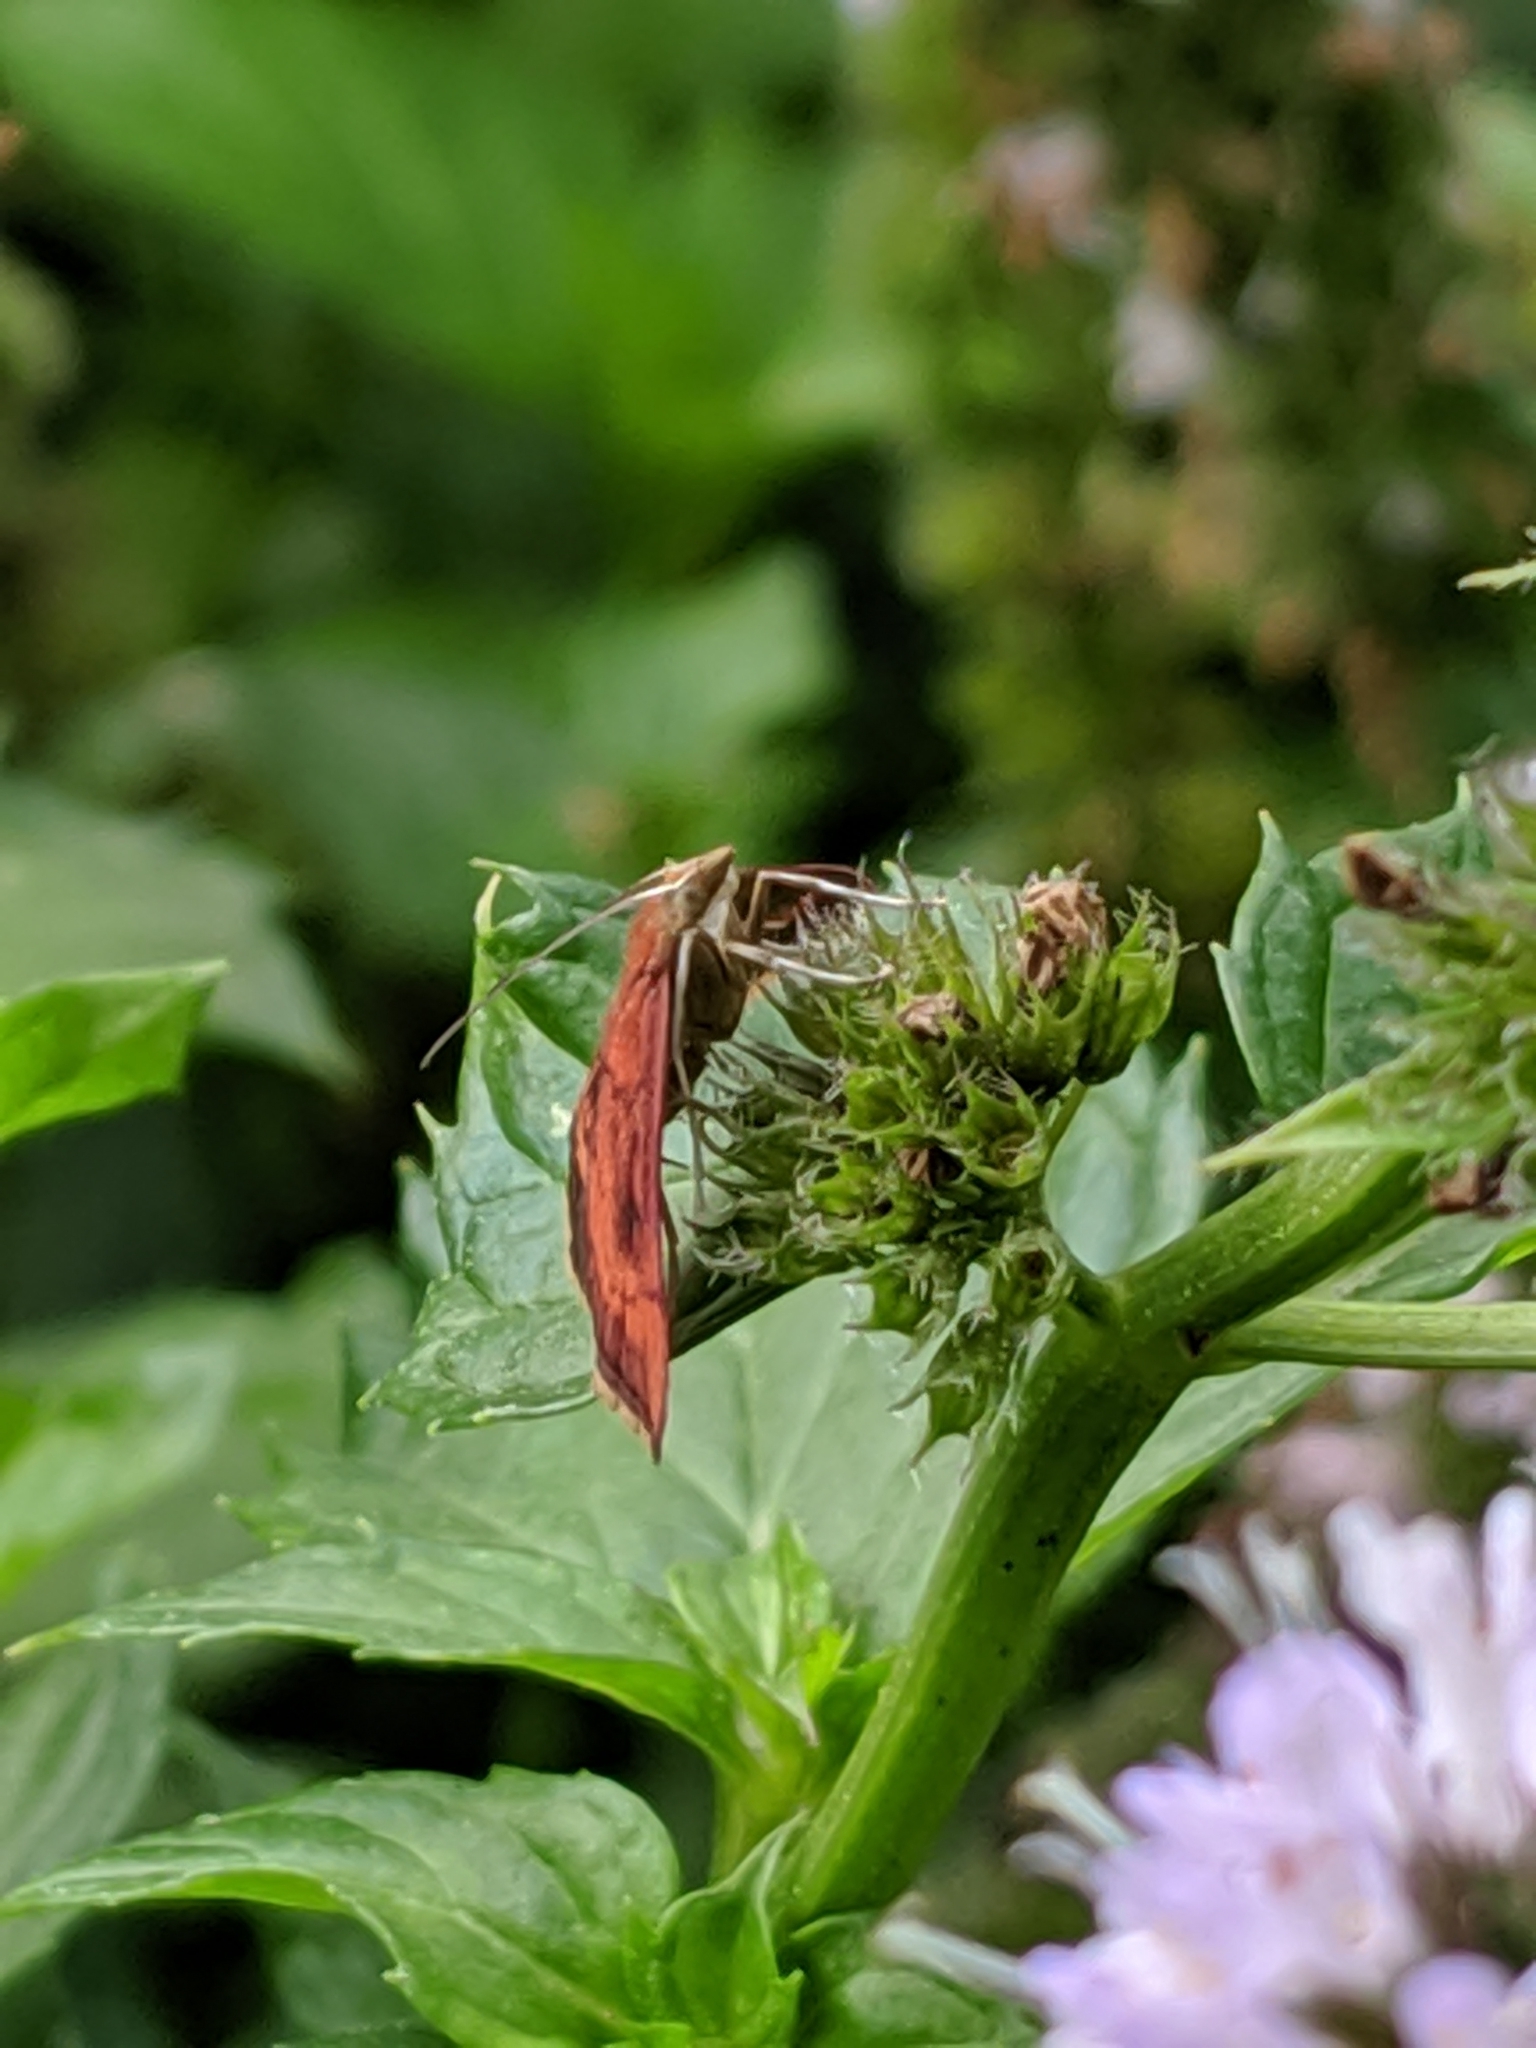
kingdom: Animalia
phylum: Arthropoda
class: Insecta
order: Lepidoptera
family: Crambidae
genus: Pyrausta
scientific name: Pyrausta rubricalis
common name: Variable reddish pyrausta
